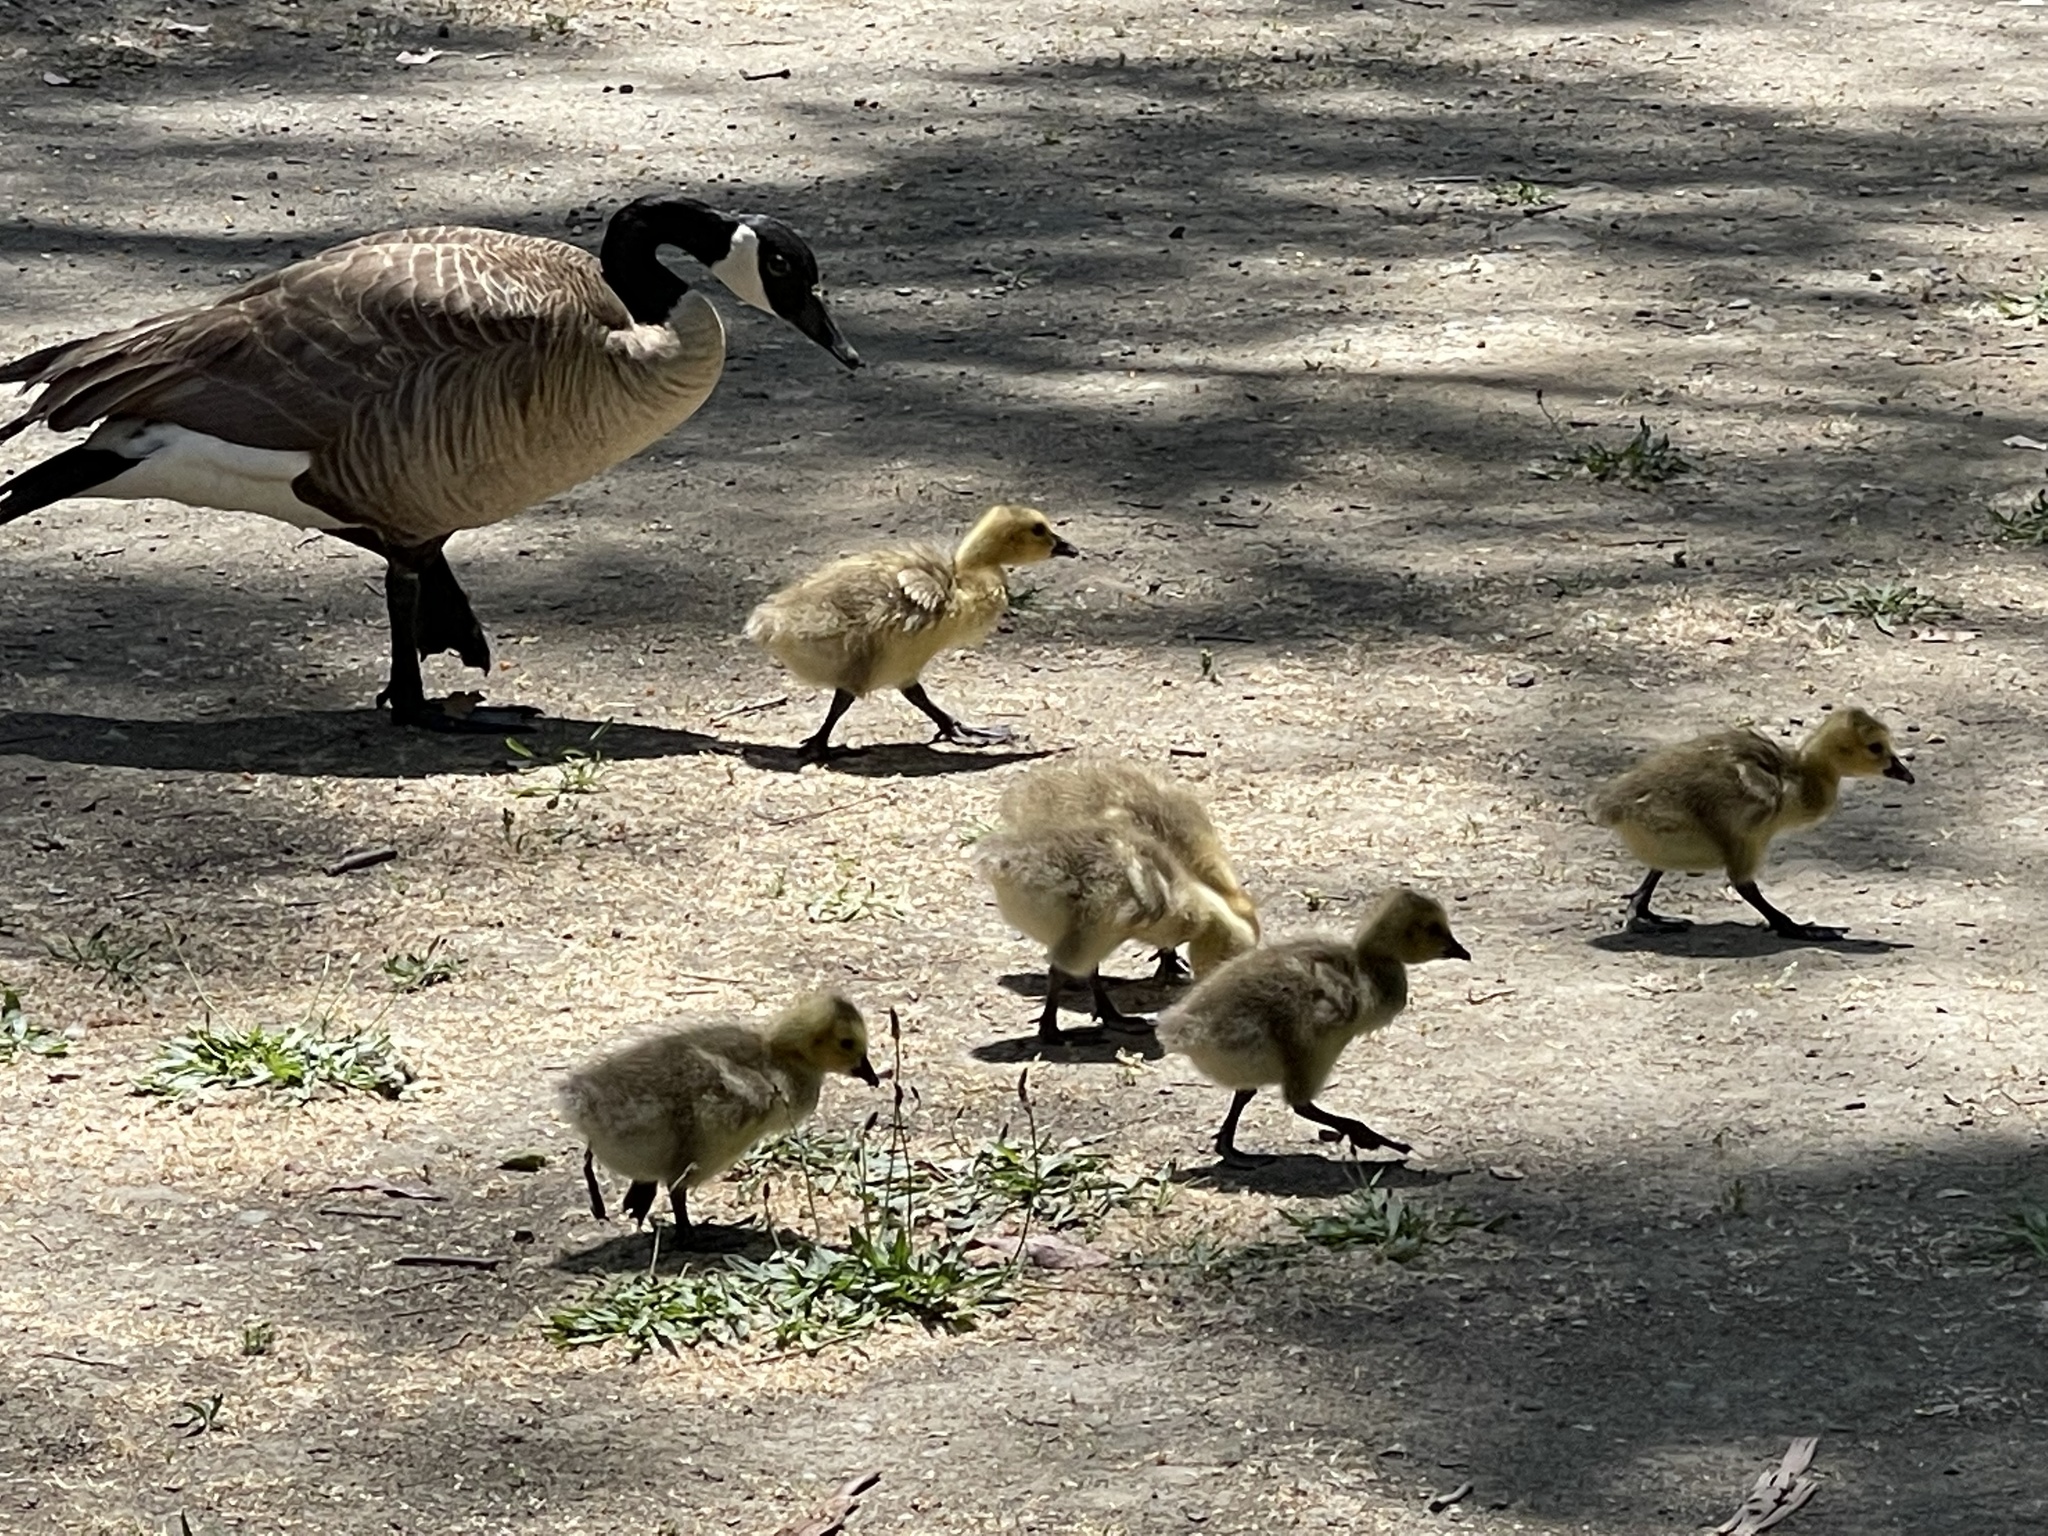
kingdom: Animalia
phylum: Chordata
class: Aves
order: Anseriformes
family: Anatidae
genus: Branta
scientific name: Branta canadensis
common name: Canada goose
